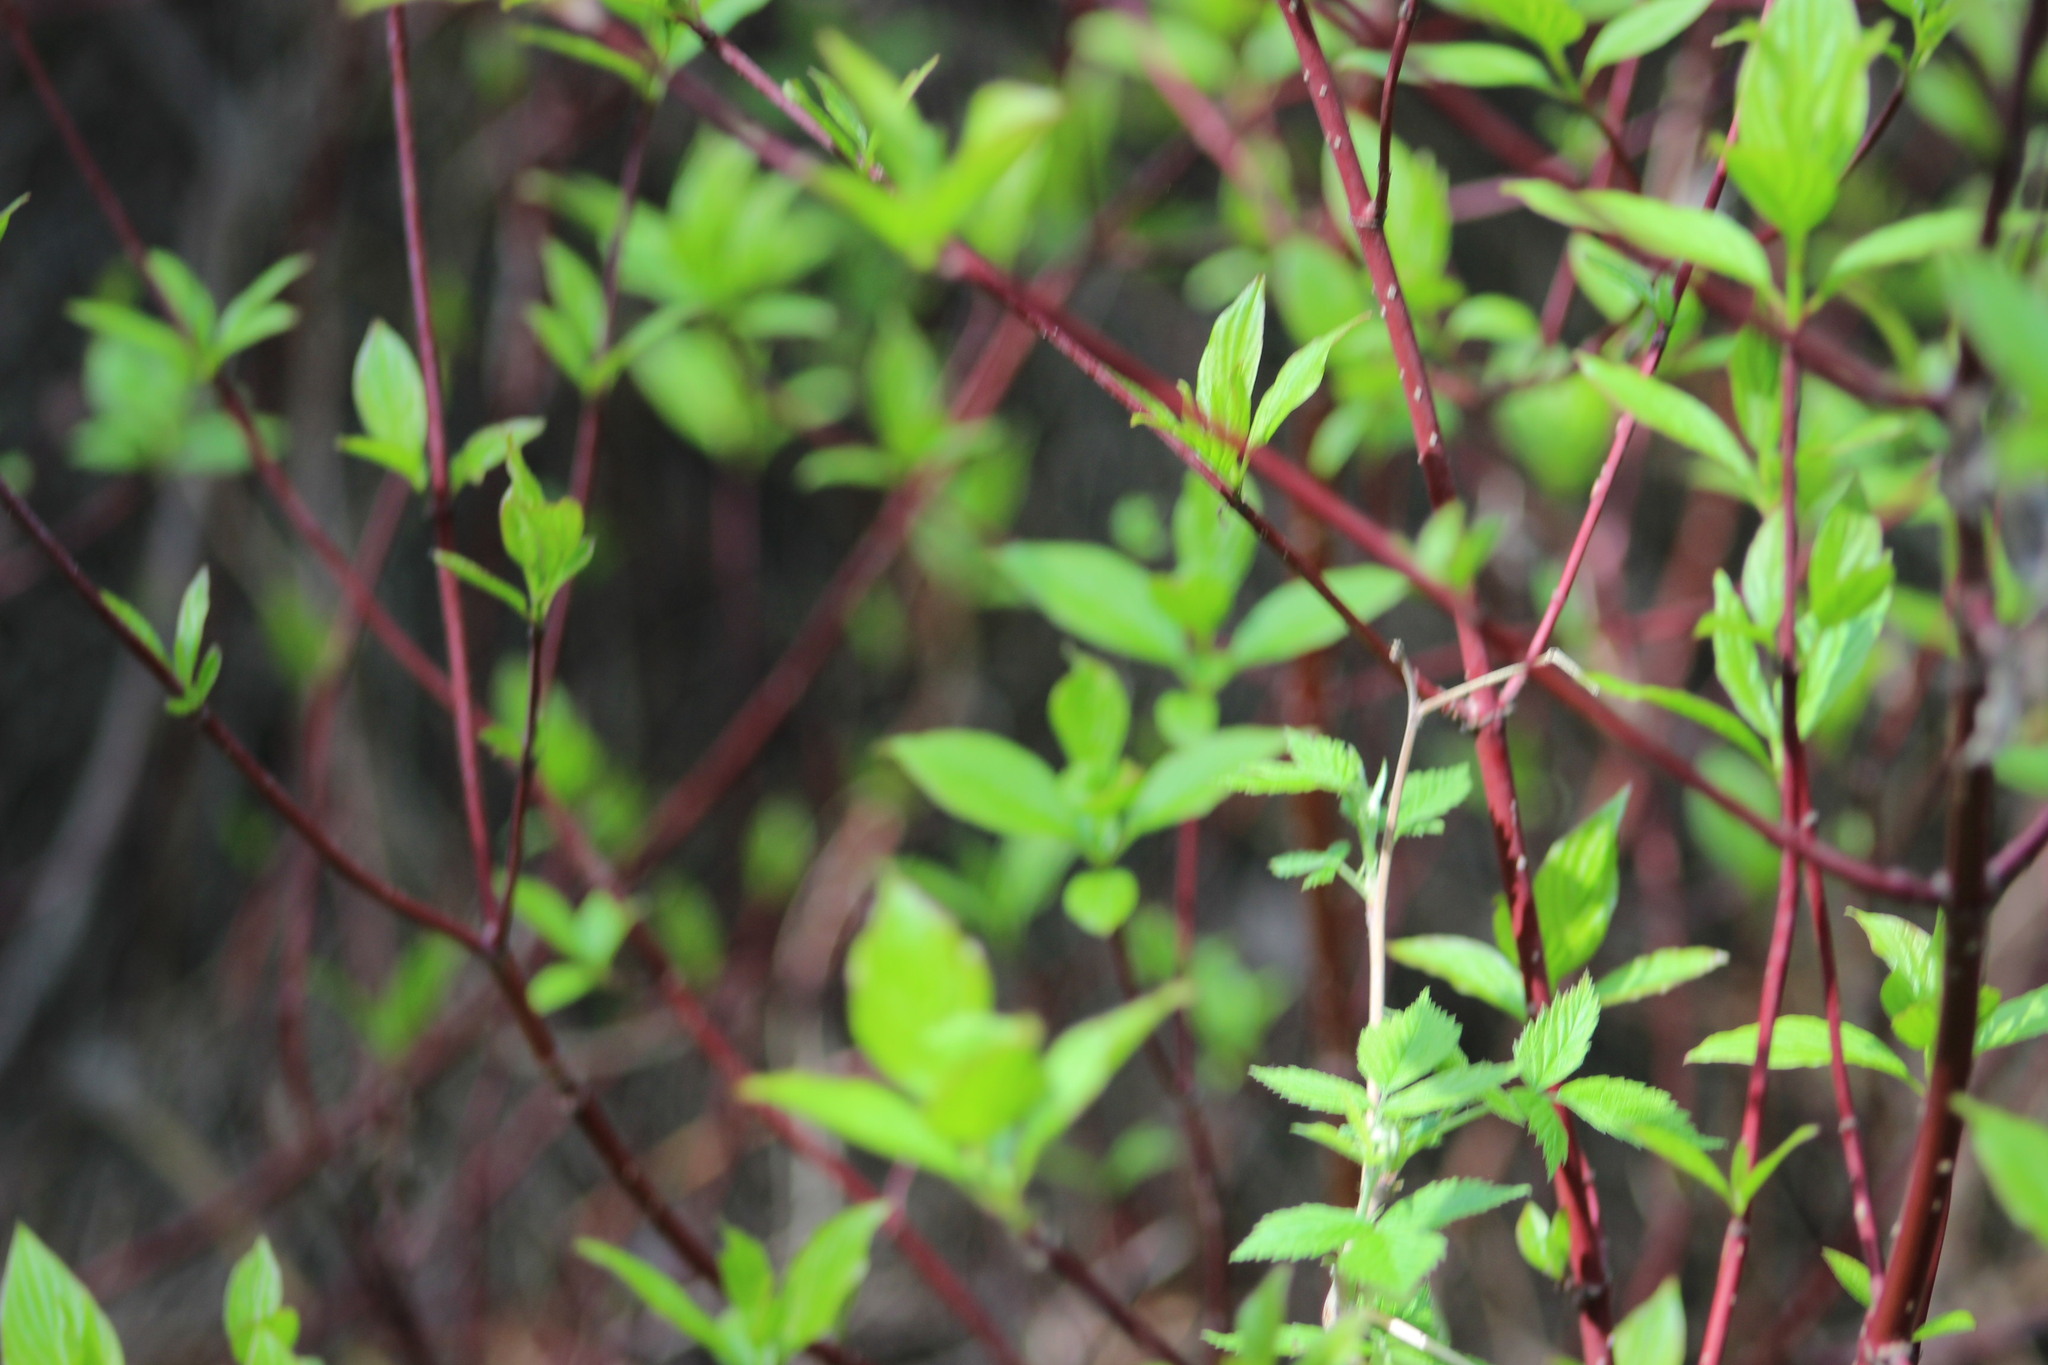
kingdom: Plantae
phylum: Tracheophyta
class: Magnoliopsida
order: Cornales
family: Cornaceae
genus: Cornus
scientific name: Cornus alba
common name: White dogwood
